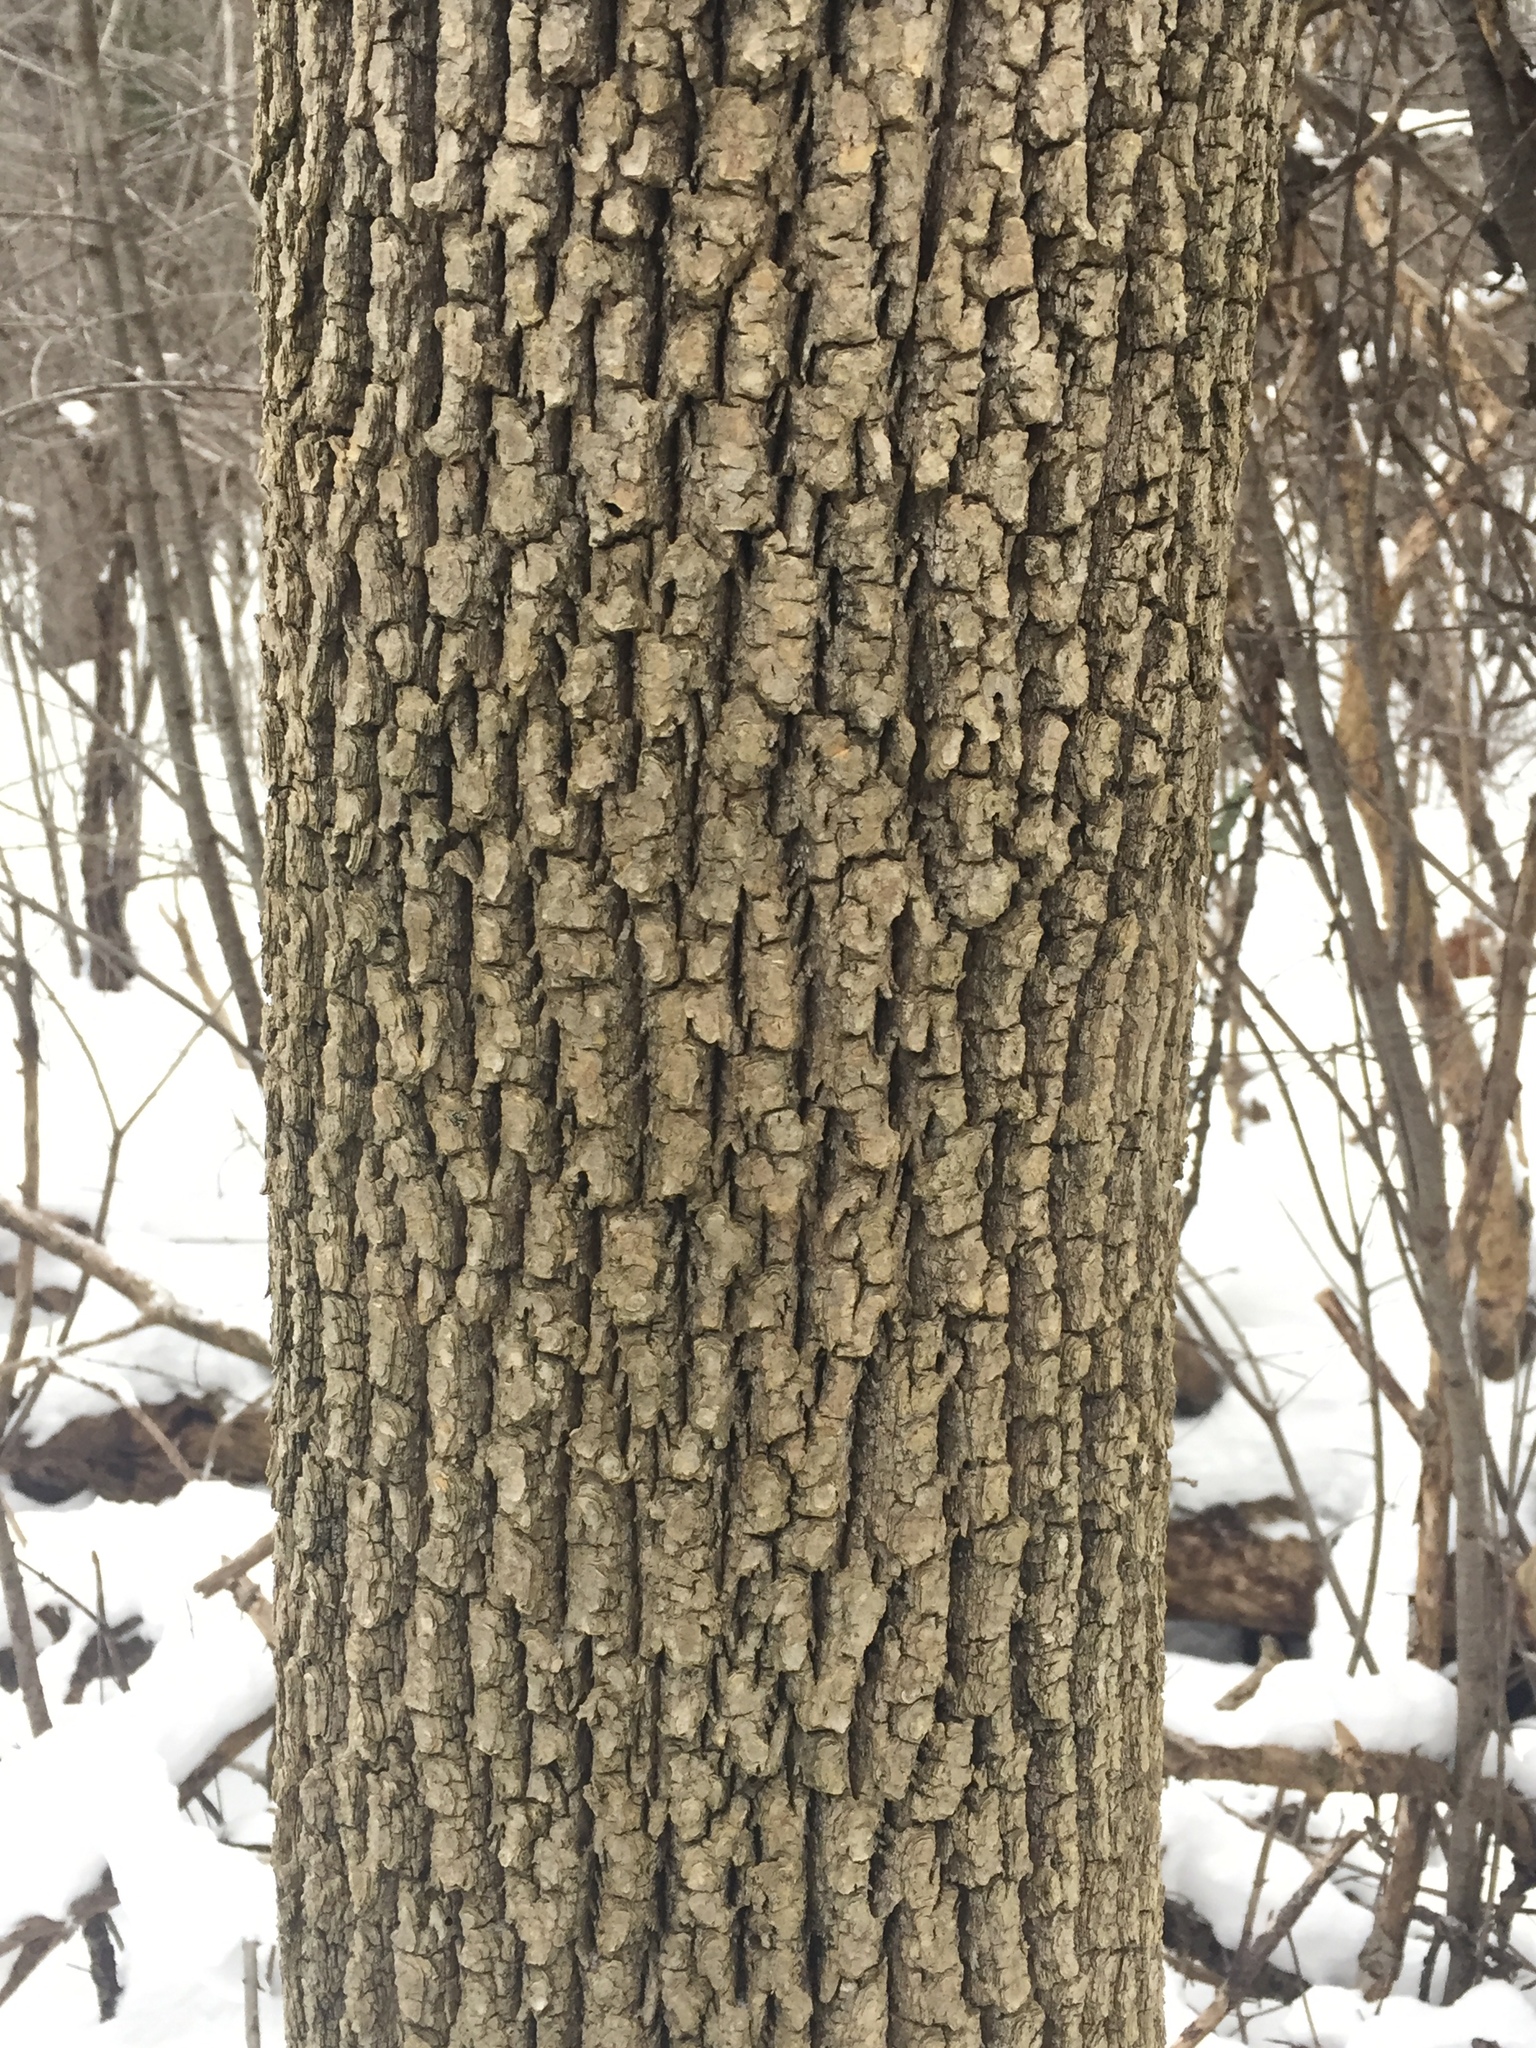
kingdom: Plantae
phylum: Tracheophyta
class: Magnoliopsida
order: Lamiales
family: Oleaceae
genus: Fraxinus
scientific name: Fraxinus americana
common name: White ash
